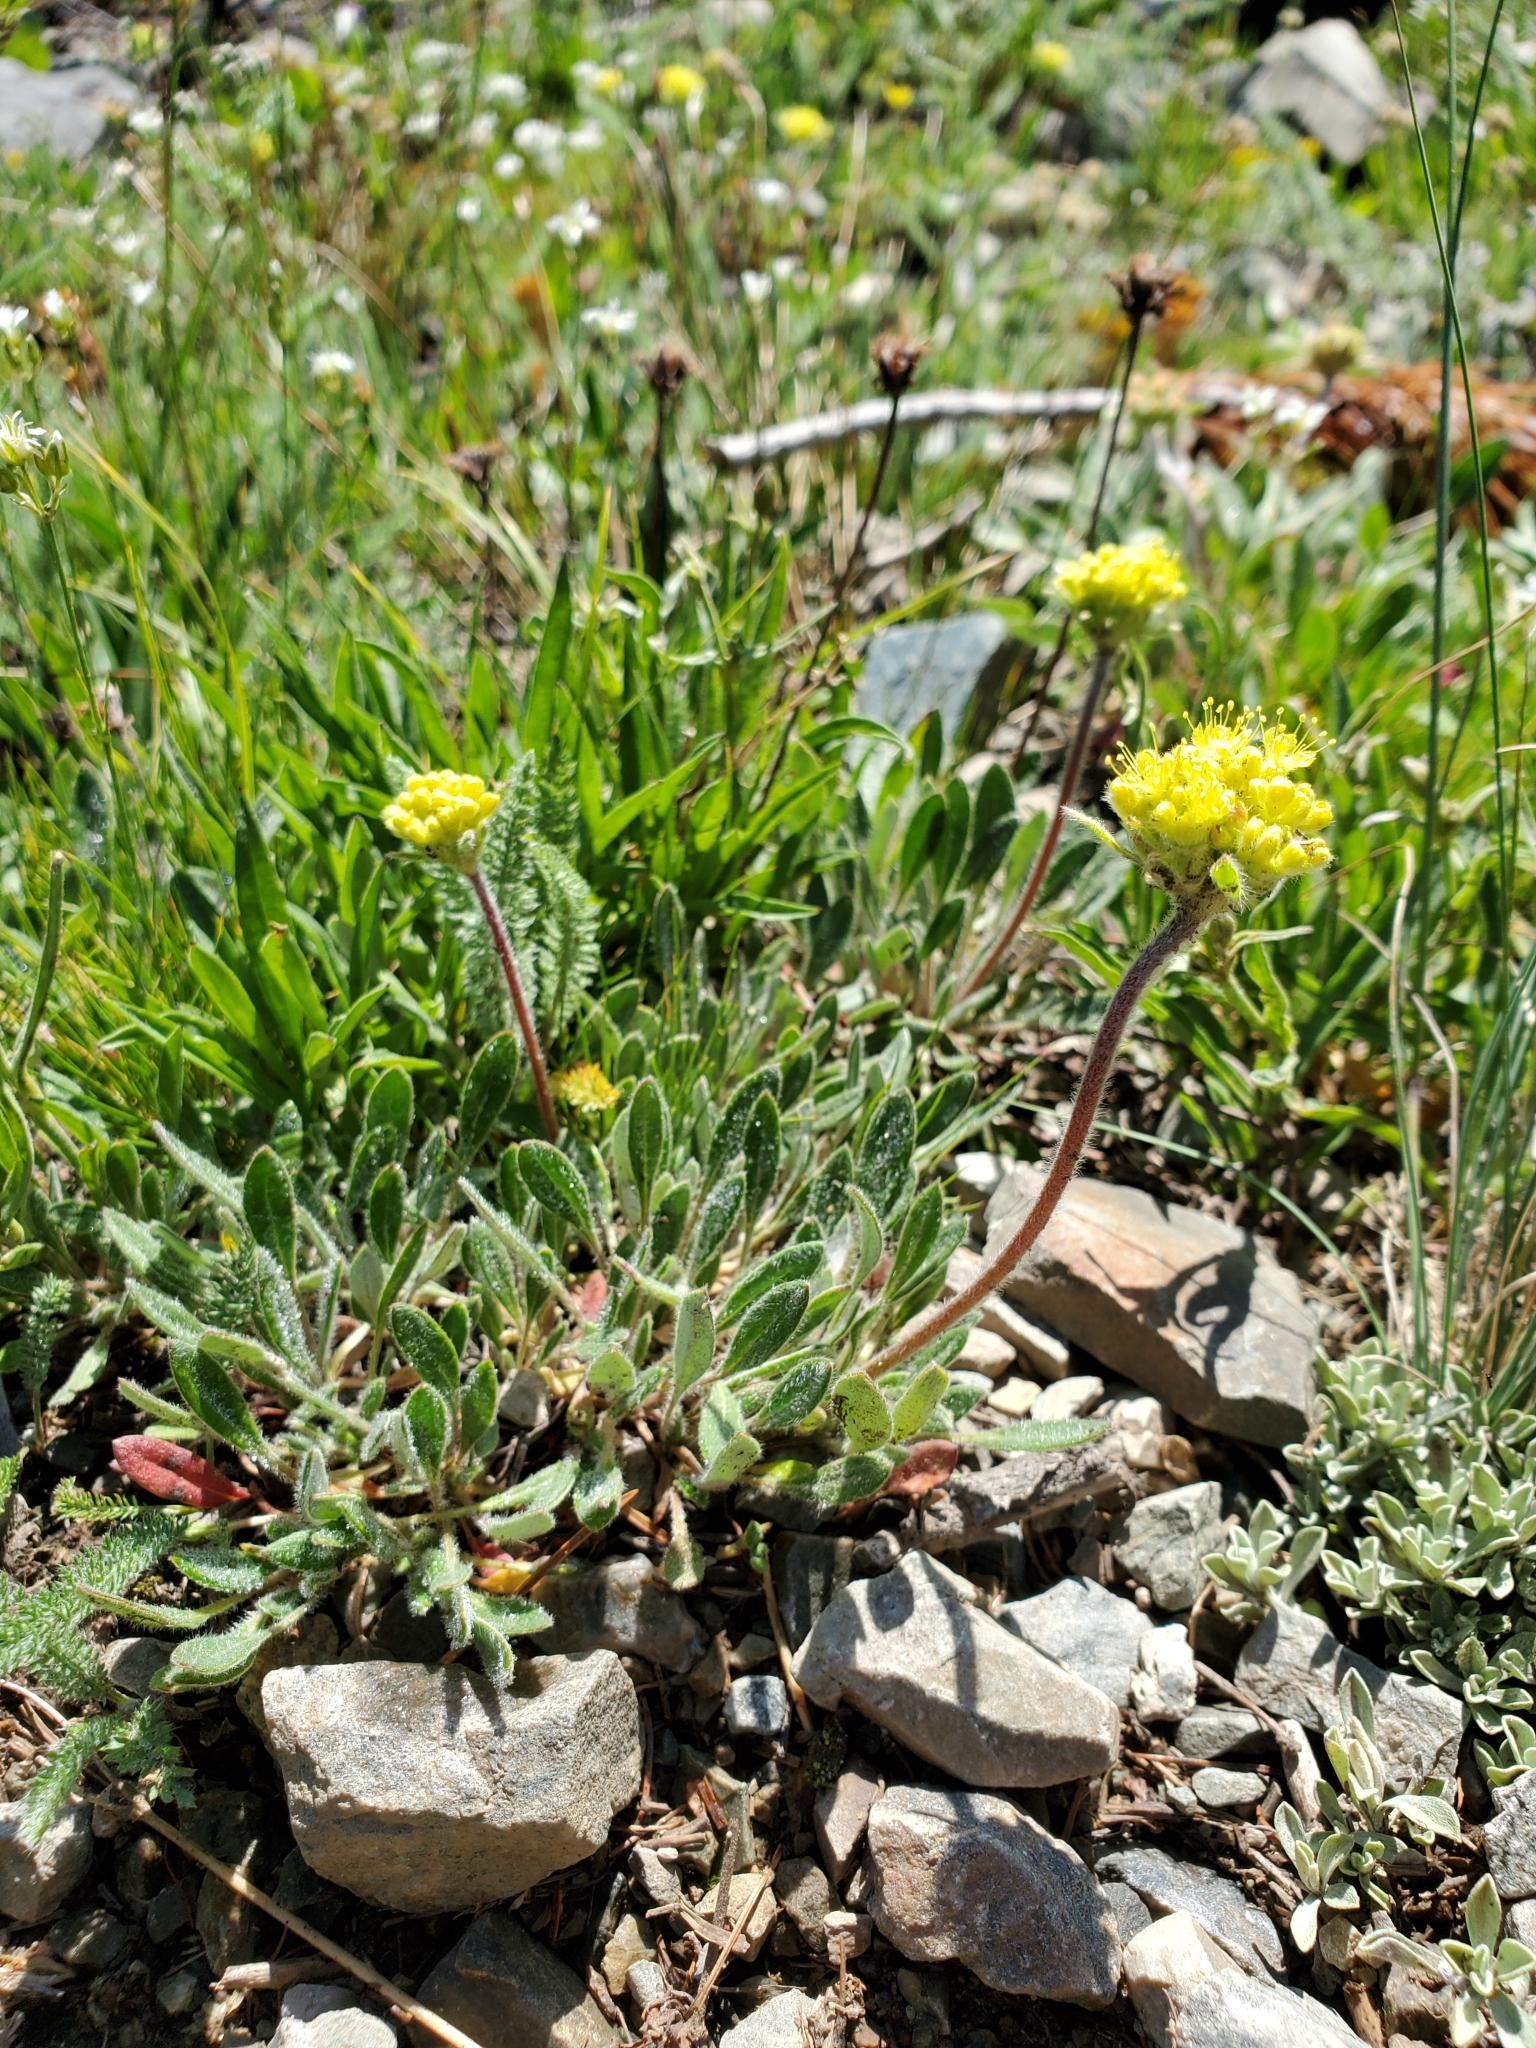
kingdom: Plantae
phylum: Tracheophyta
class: Magnoliopsida
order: Caryophyllales
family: Polygonaceae
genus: Eriogonum
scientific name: Eriogonum flavum
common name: Alpine golden wild buckwheat
